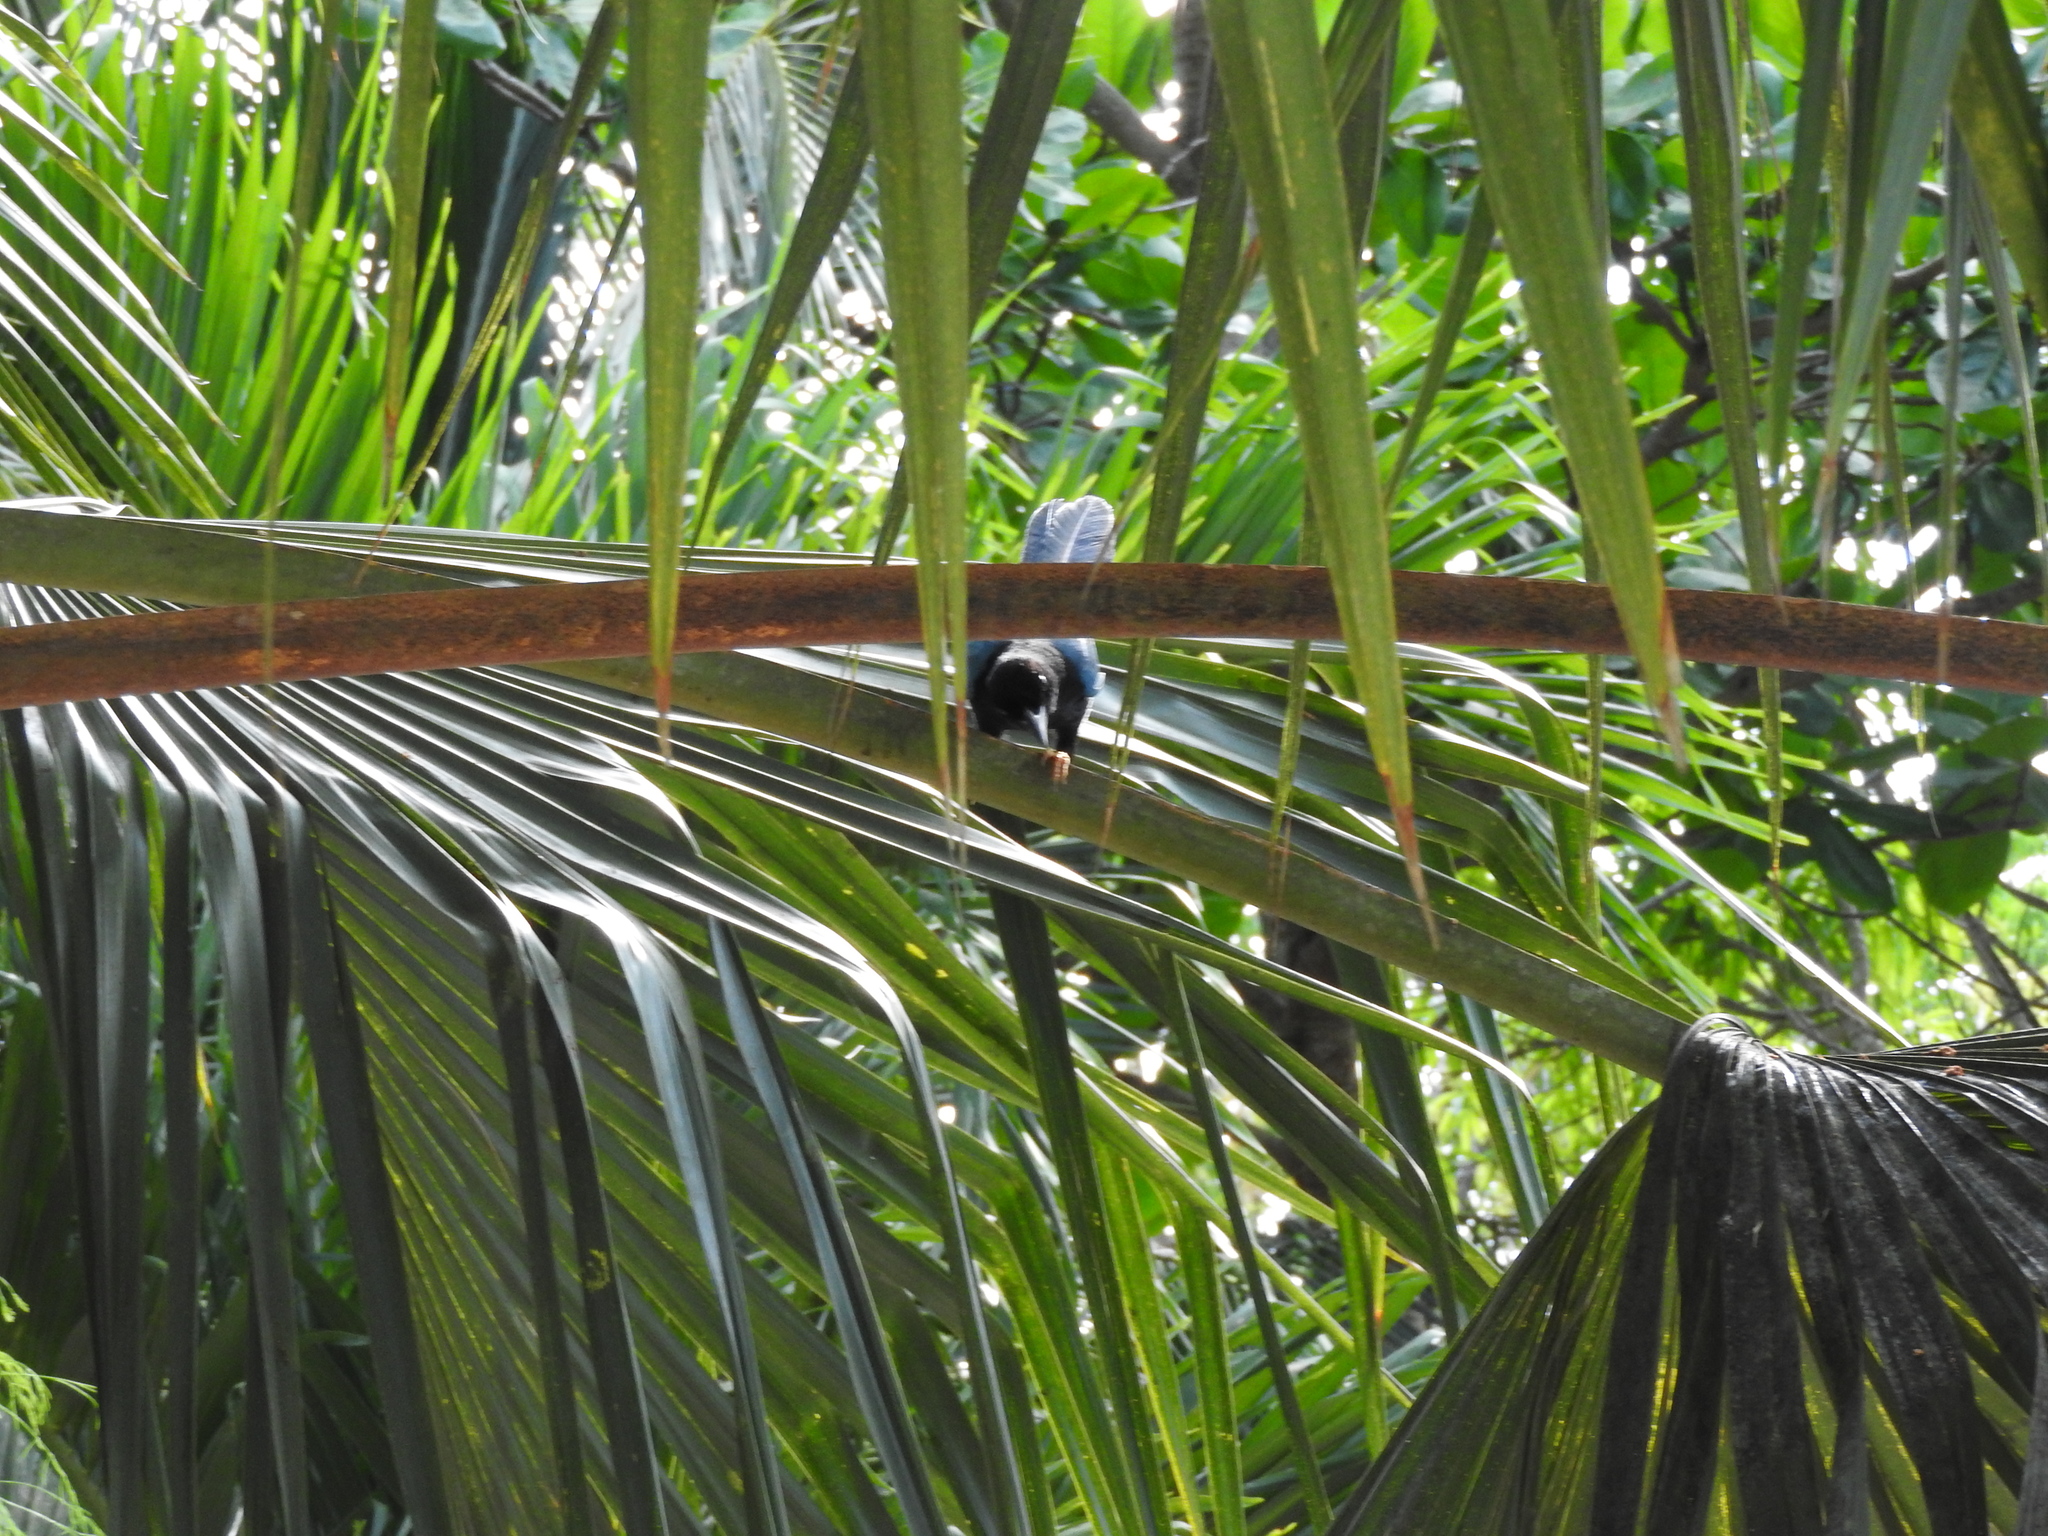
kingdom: Animalia
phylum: Chordata
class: Aves
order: Passeriformes
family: Corvidae
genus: Cyanocorax
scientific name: Cyanocorax yucatanicus
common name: Yucatan jay
